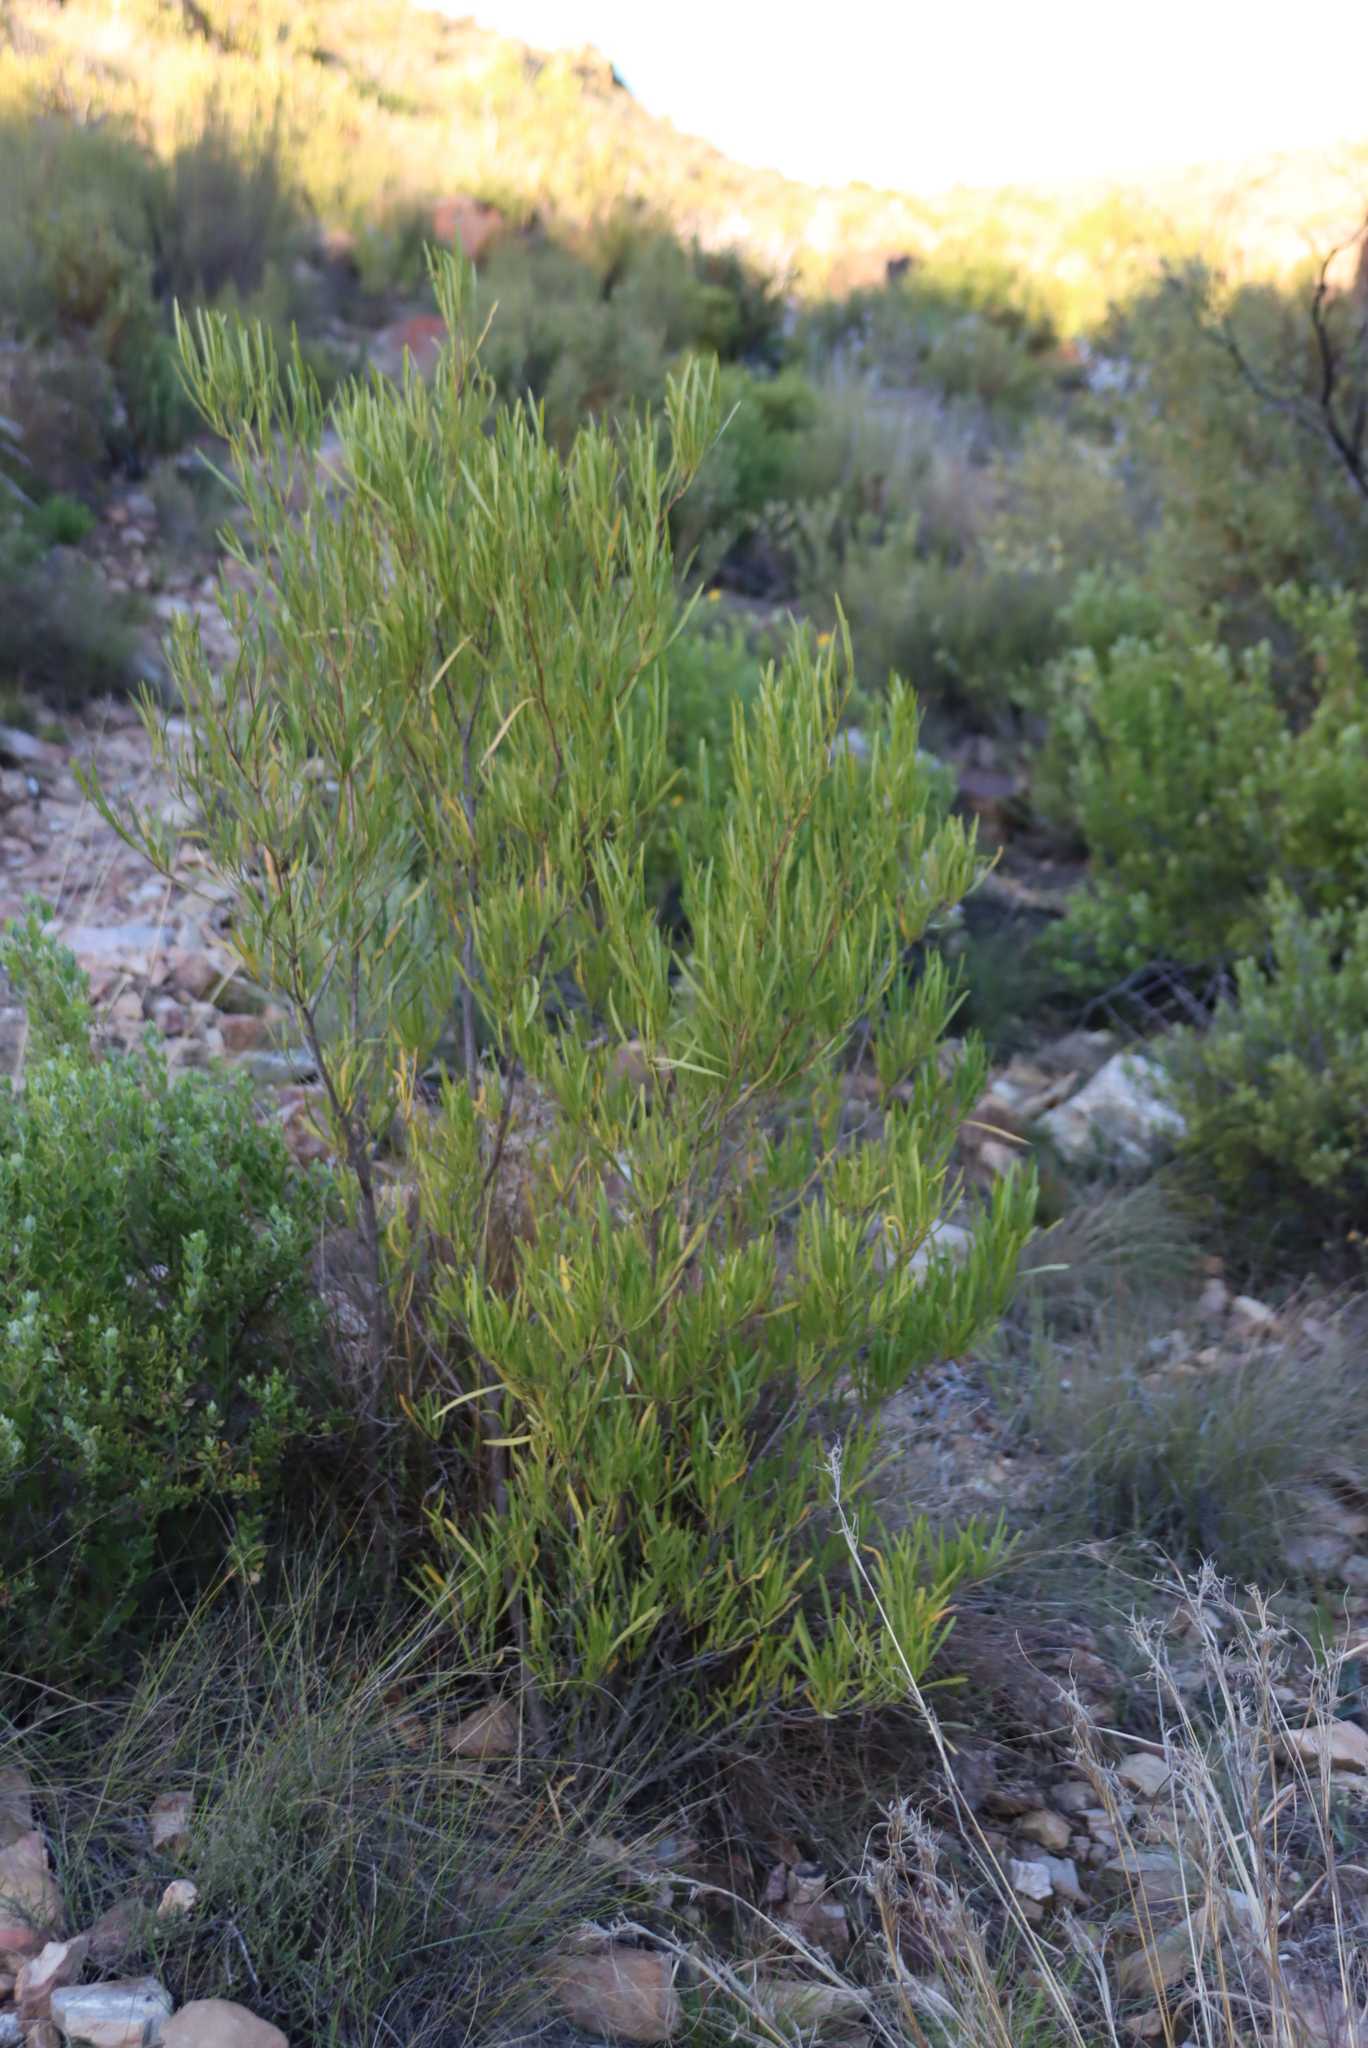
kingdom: Plantae
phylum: Tracheophyta
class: Magnoliopsida
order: Sapindales
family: Sapindaceae
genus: Dodonaea
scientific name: Dodonaea viscosa
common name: Hopbush
